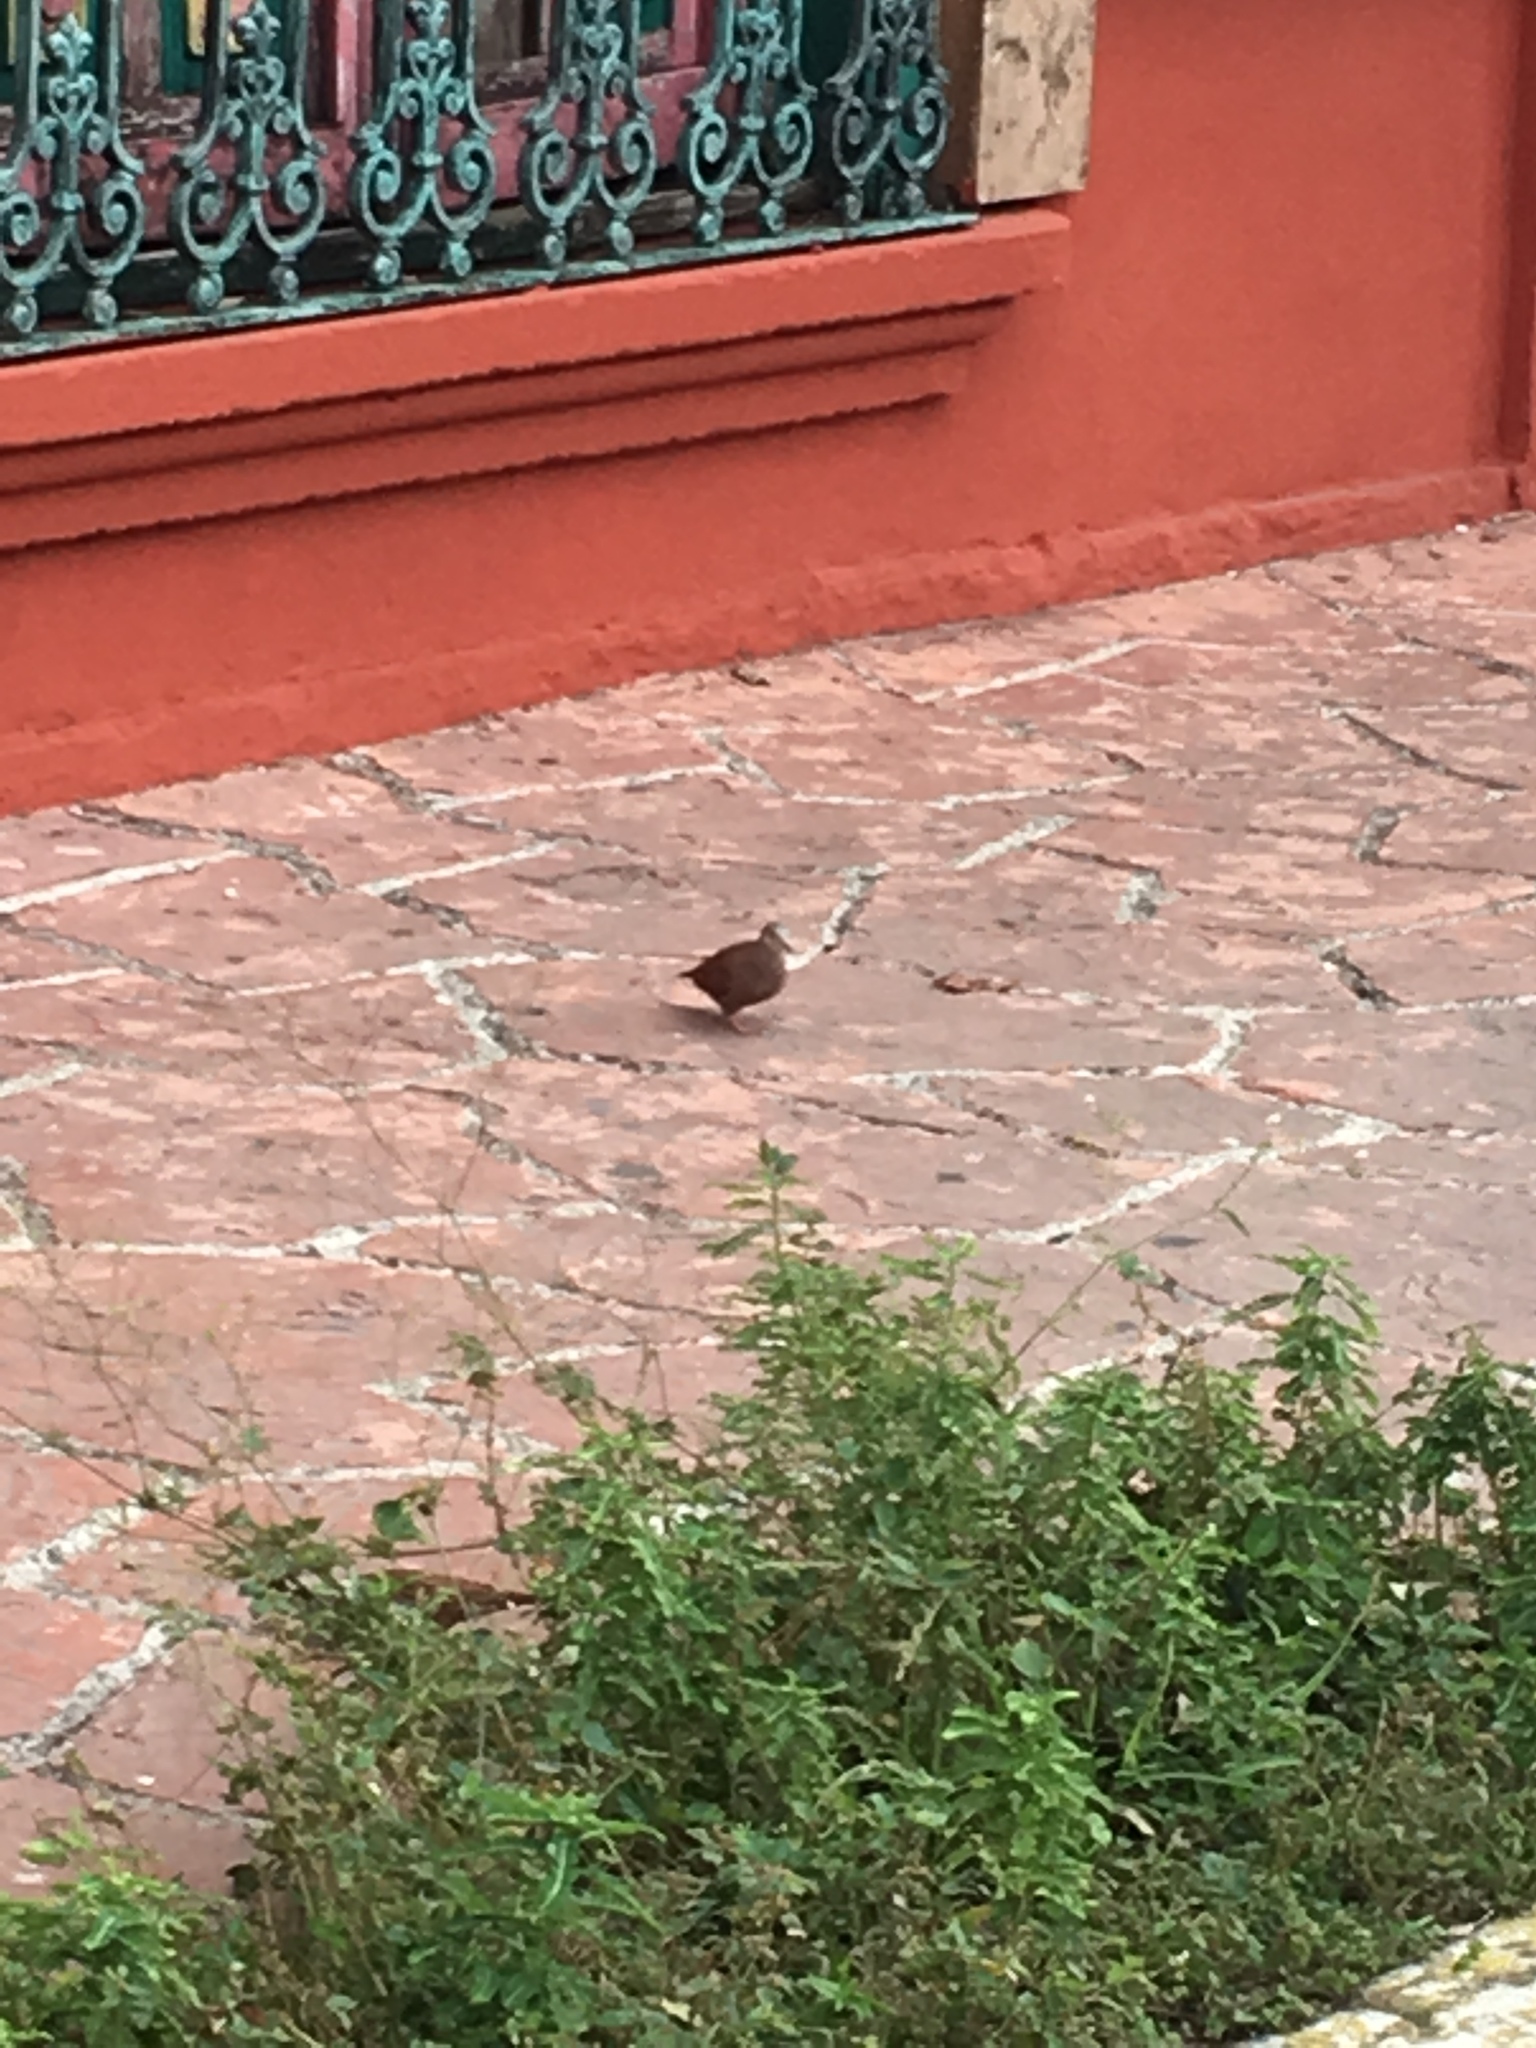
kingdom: Animalia
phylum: Chordata
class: Aves
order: Columbiformes
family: Columbidae
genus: Columbina
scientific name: Columbina talpacoti
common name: Ruddy ground dove
